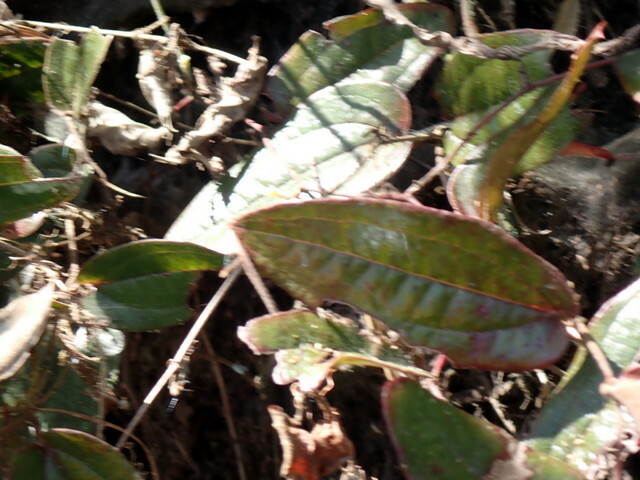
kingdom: Plantae
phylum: Tracheophyta
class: Liliopsida
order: Liliales
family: Smilacaceae
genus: Smilax
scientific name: Smilax pumila
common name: Sarsaparilla-vine
